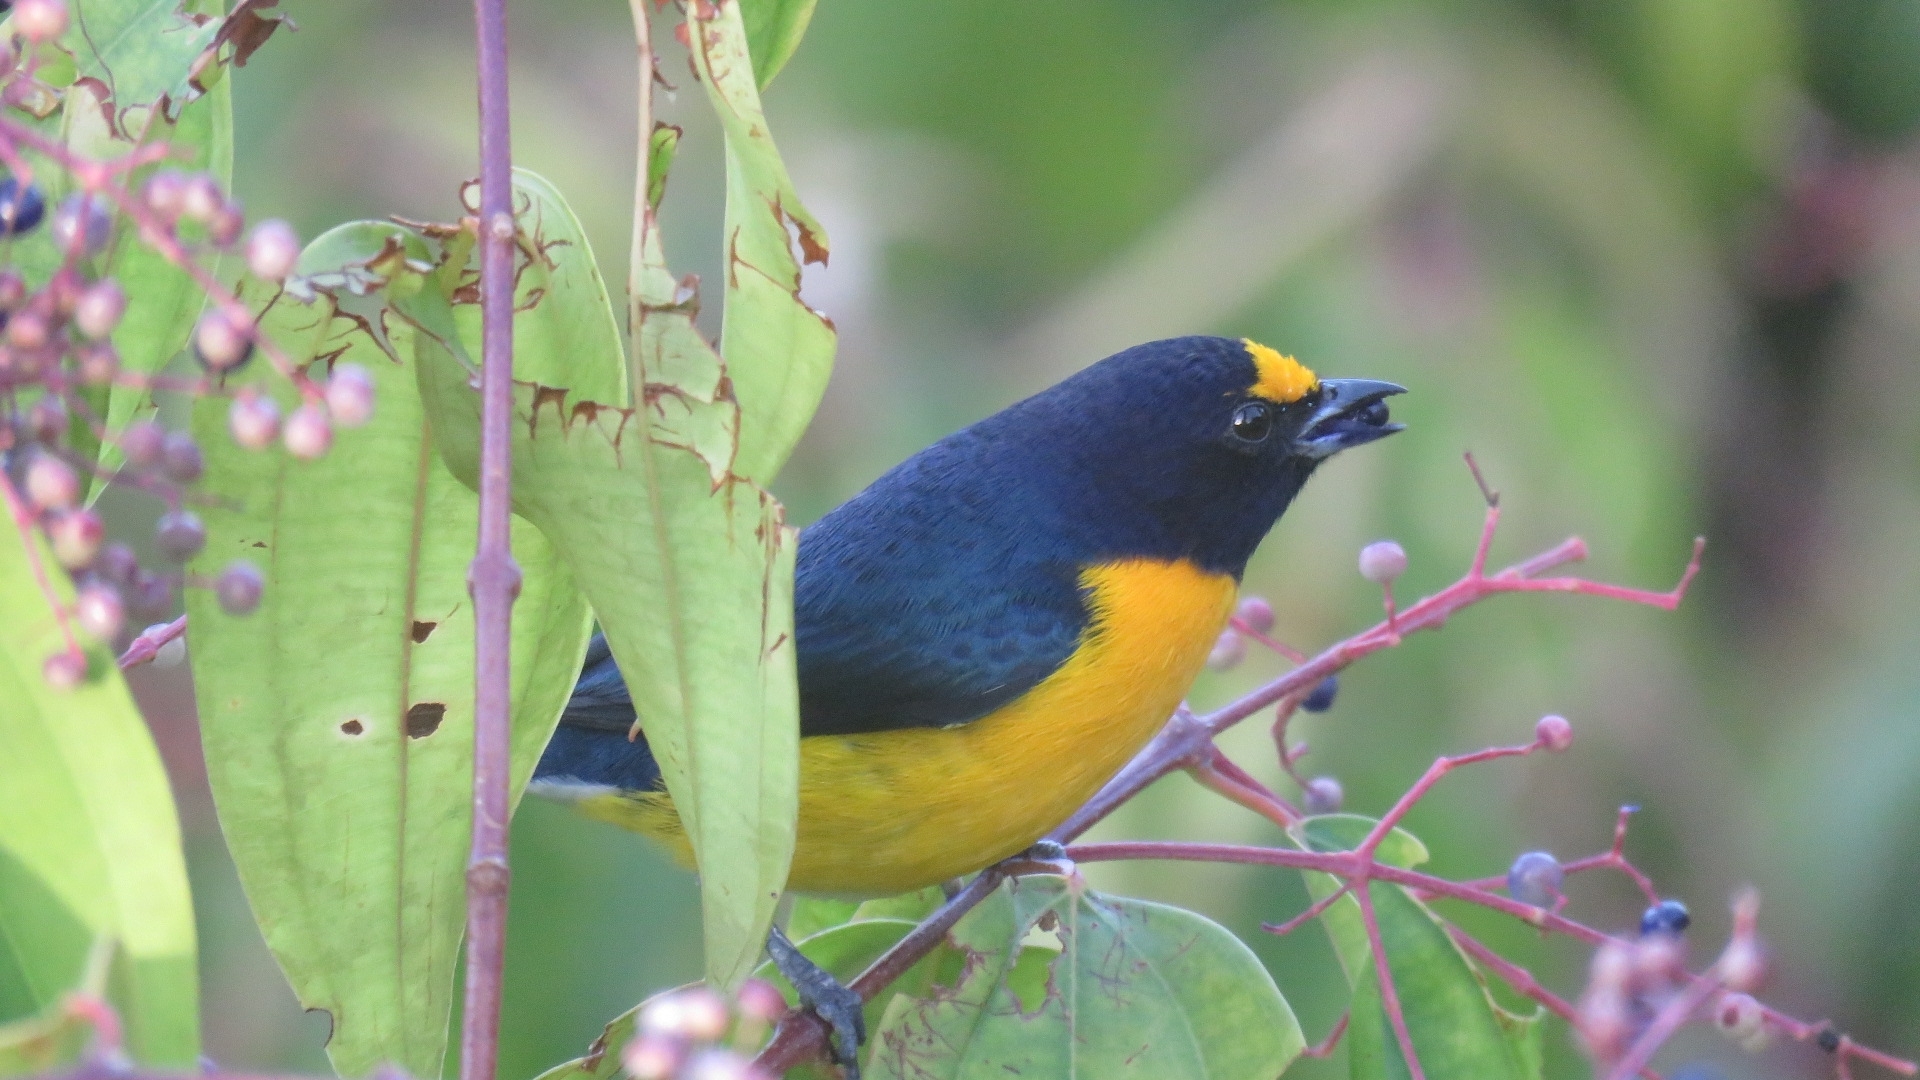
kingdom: Animalia
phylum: Chordata
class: Aves
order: Passeriformes
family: Fringillidae
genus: Euphonia
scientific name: Euphonia minuta
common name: White-vented euphonia
